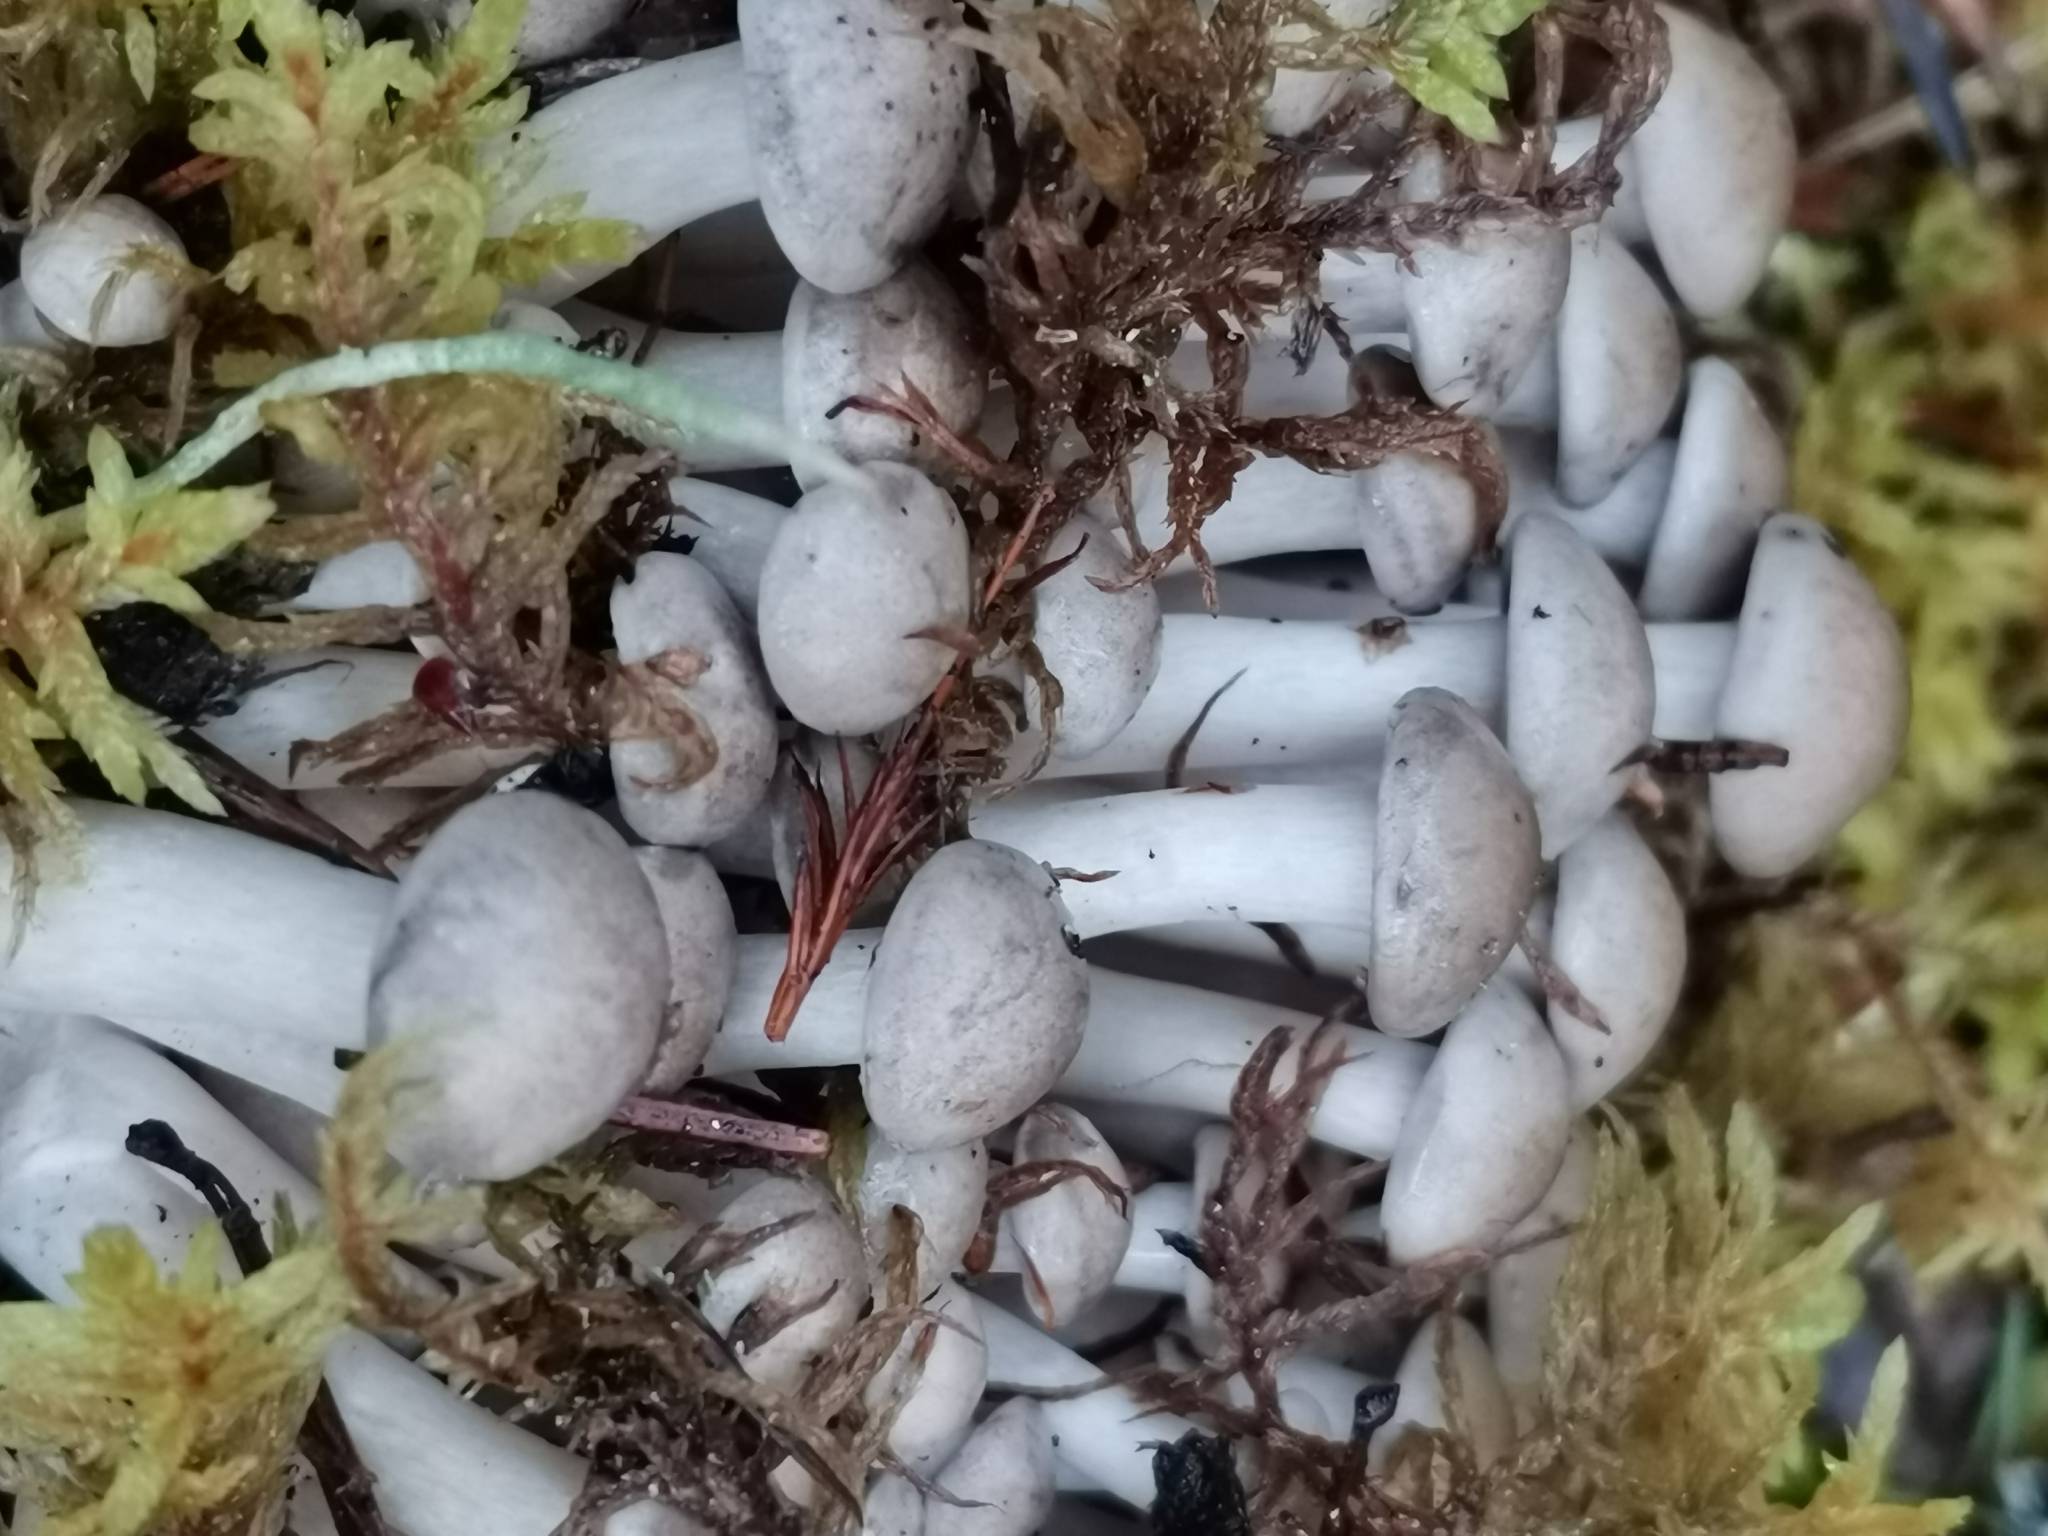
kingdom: Fungi
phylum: Basidiomycota
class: Agaricomycetes
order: Agaricales
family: Lyophyllaceae
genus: Lyophyllum
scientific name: Lyophyllum shimeji
